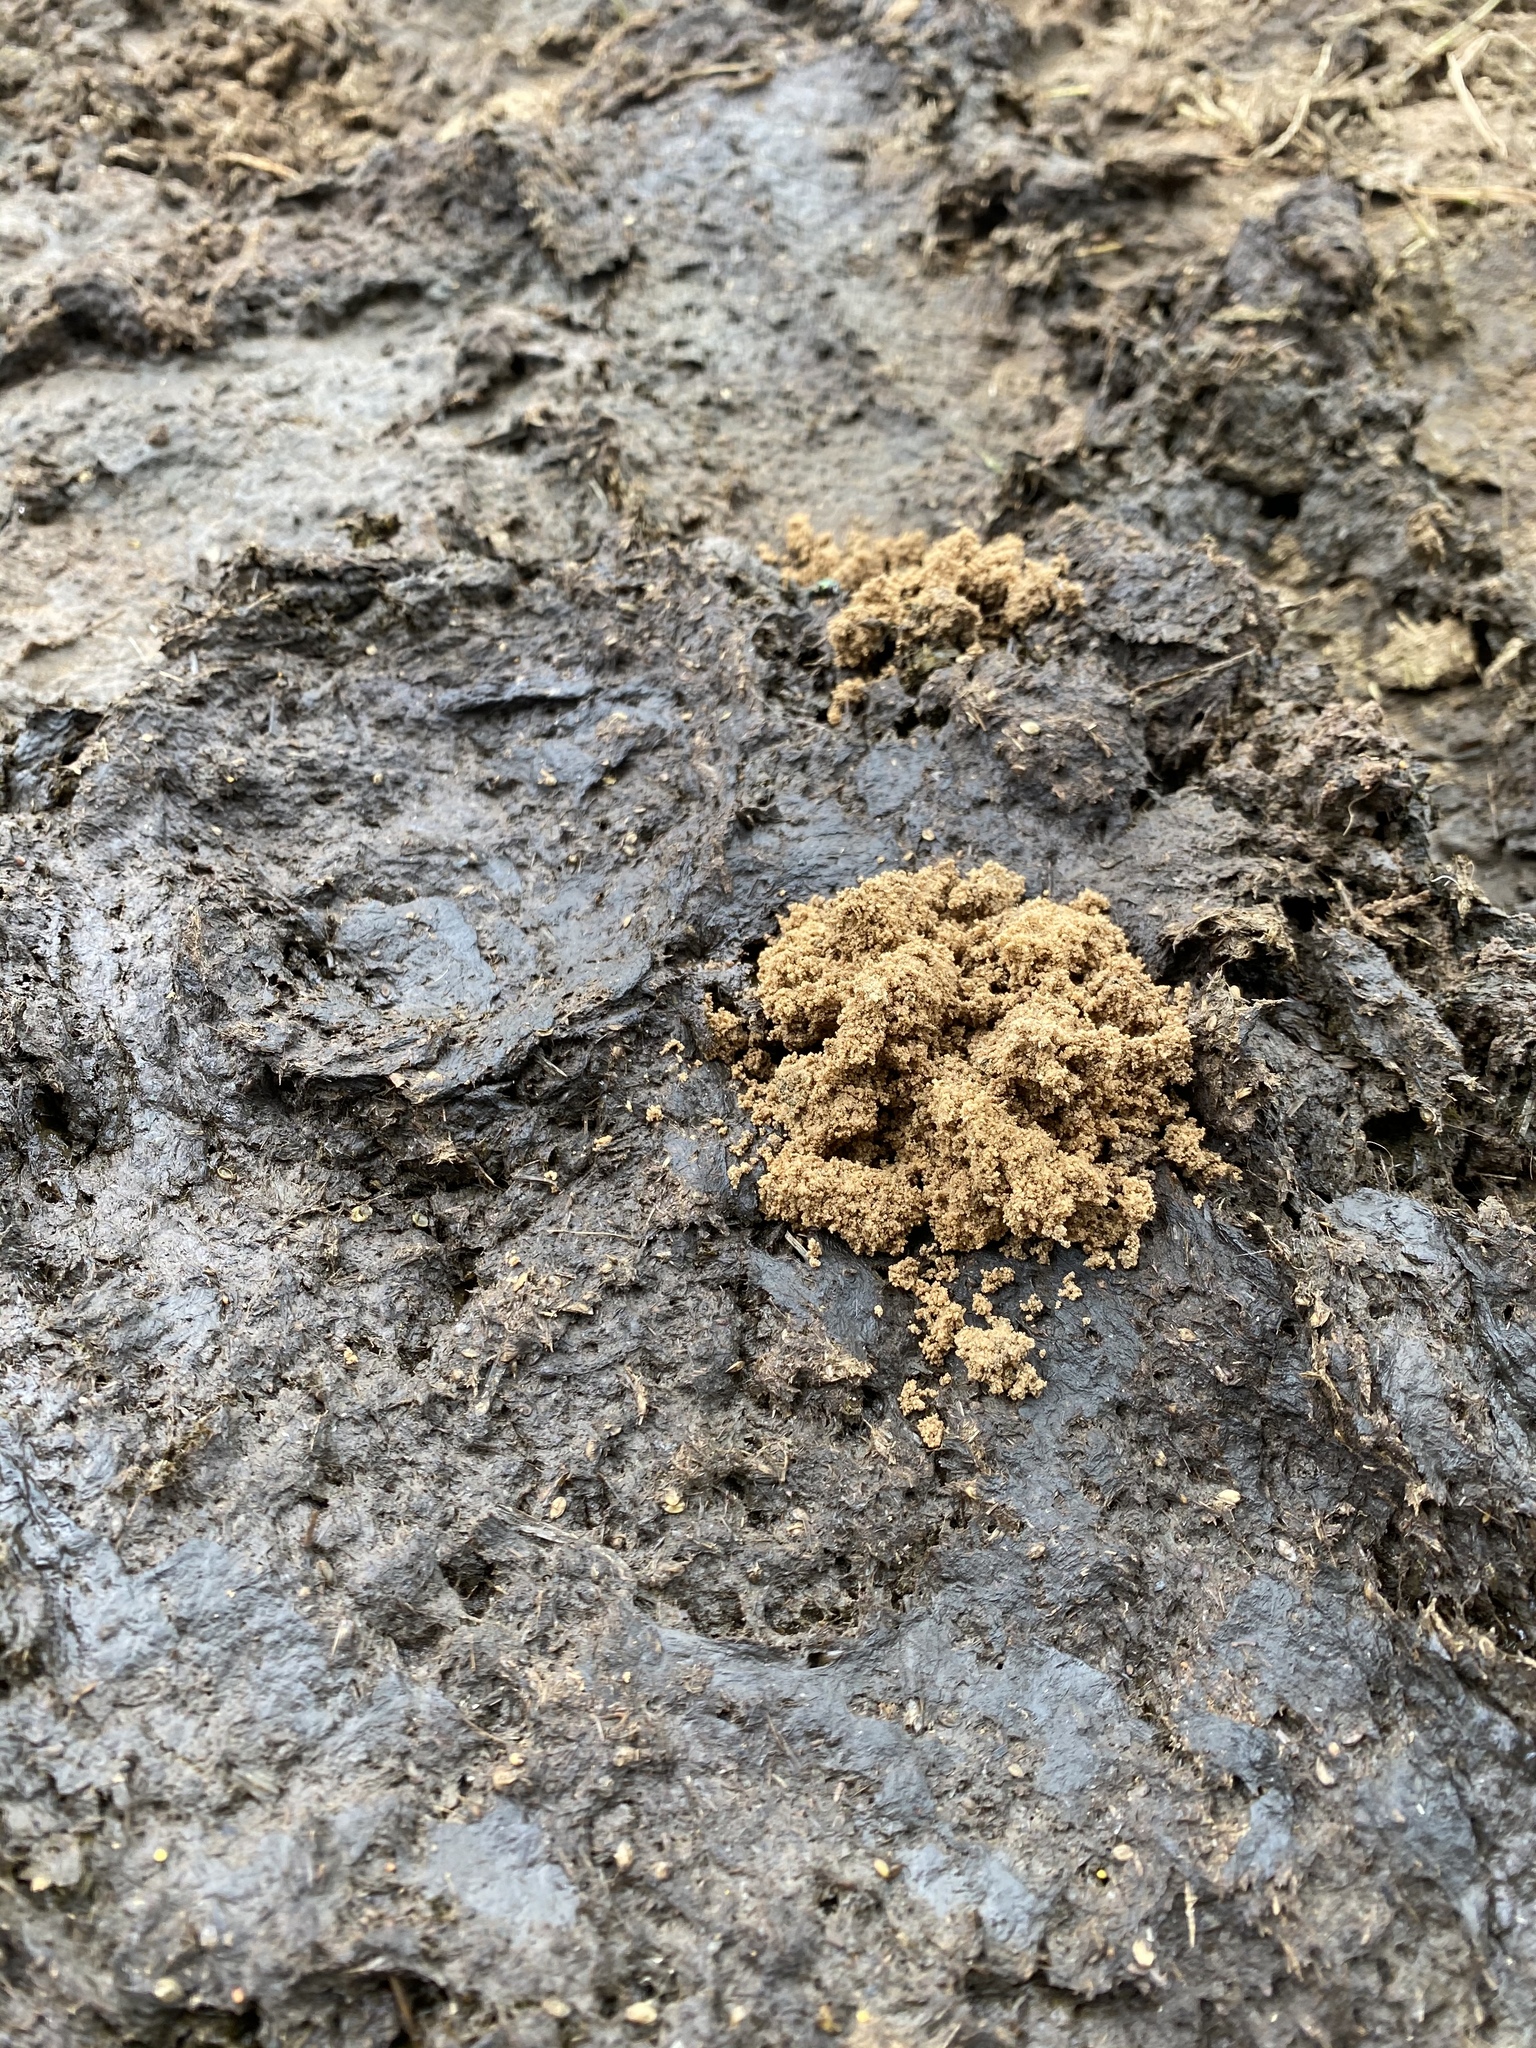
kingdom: Animalia
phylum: Arthropoda
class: Insecta
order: Coleoptera
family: Scarabaeidae
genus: Digitonthophagus
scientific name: Digitonthophagus gazella
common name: Brown dung beetle
